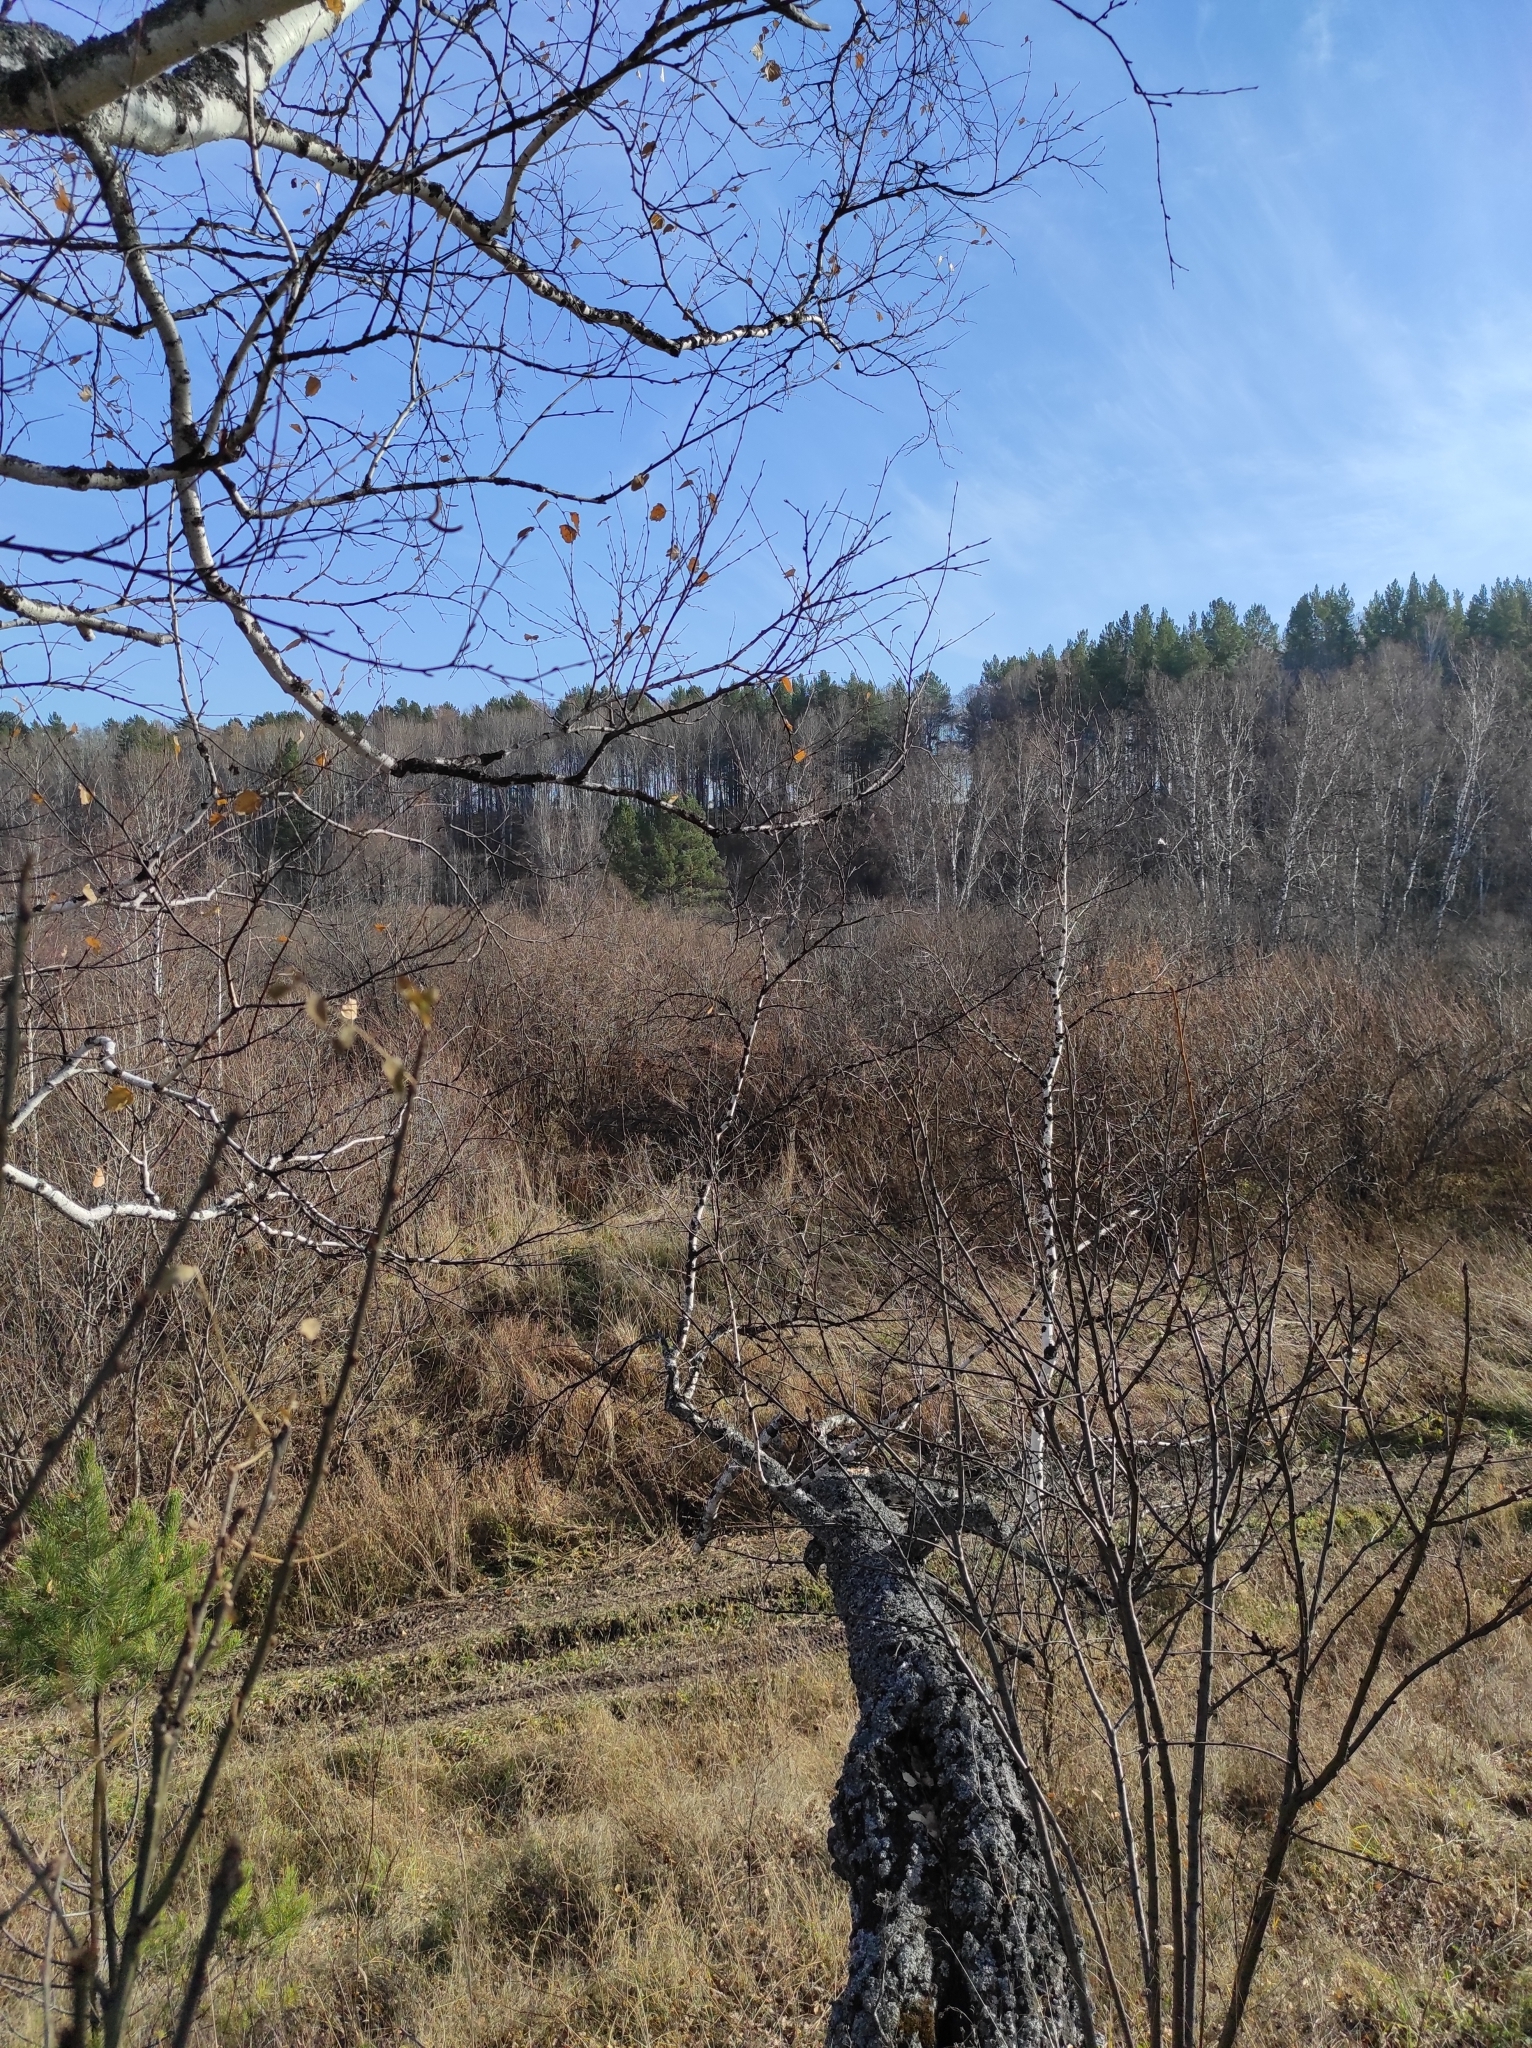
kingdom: Plantae
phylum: Tracheophyta
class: Magnoliopsida
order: Fagales
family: Betulaceae
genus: Betula
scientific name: Betula pendula
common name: Silver birch
